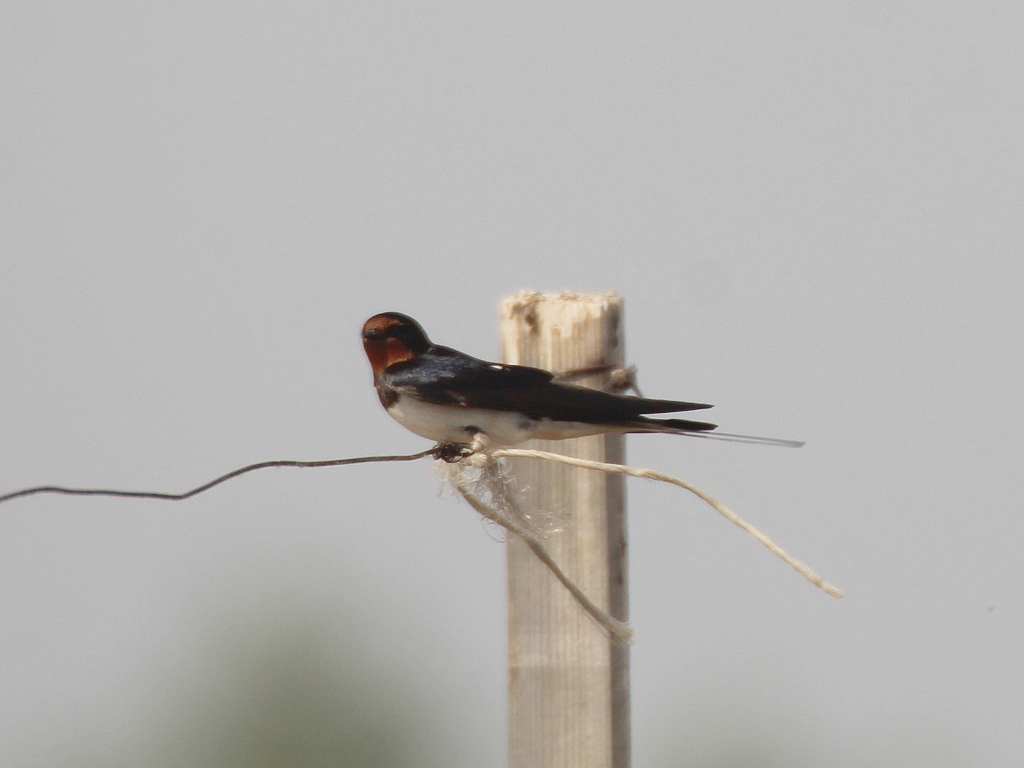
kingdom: Animalia
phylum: Chordata
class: Aves
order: Passeriformes
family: Hirundinidae
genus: Hirundo
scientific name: Hirundo rustica
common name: Barn swallow
